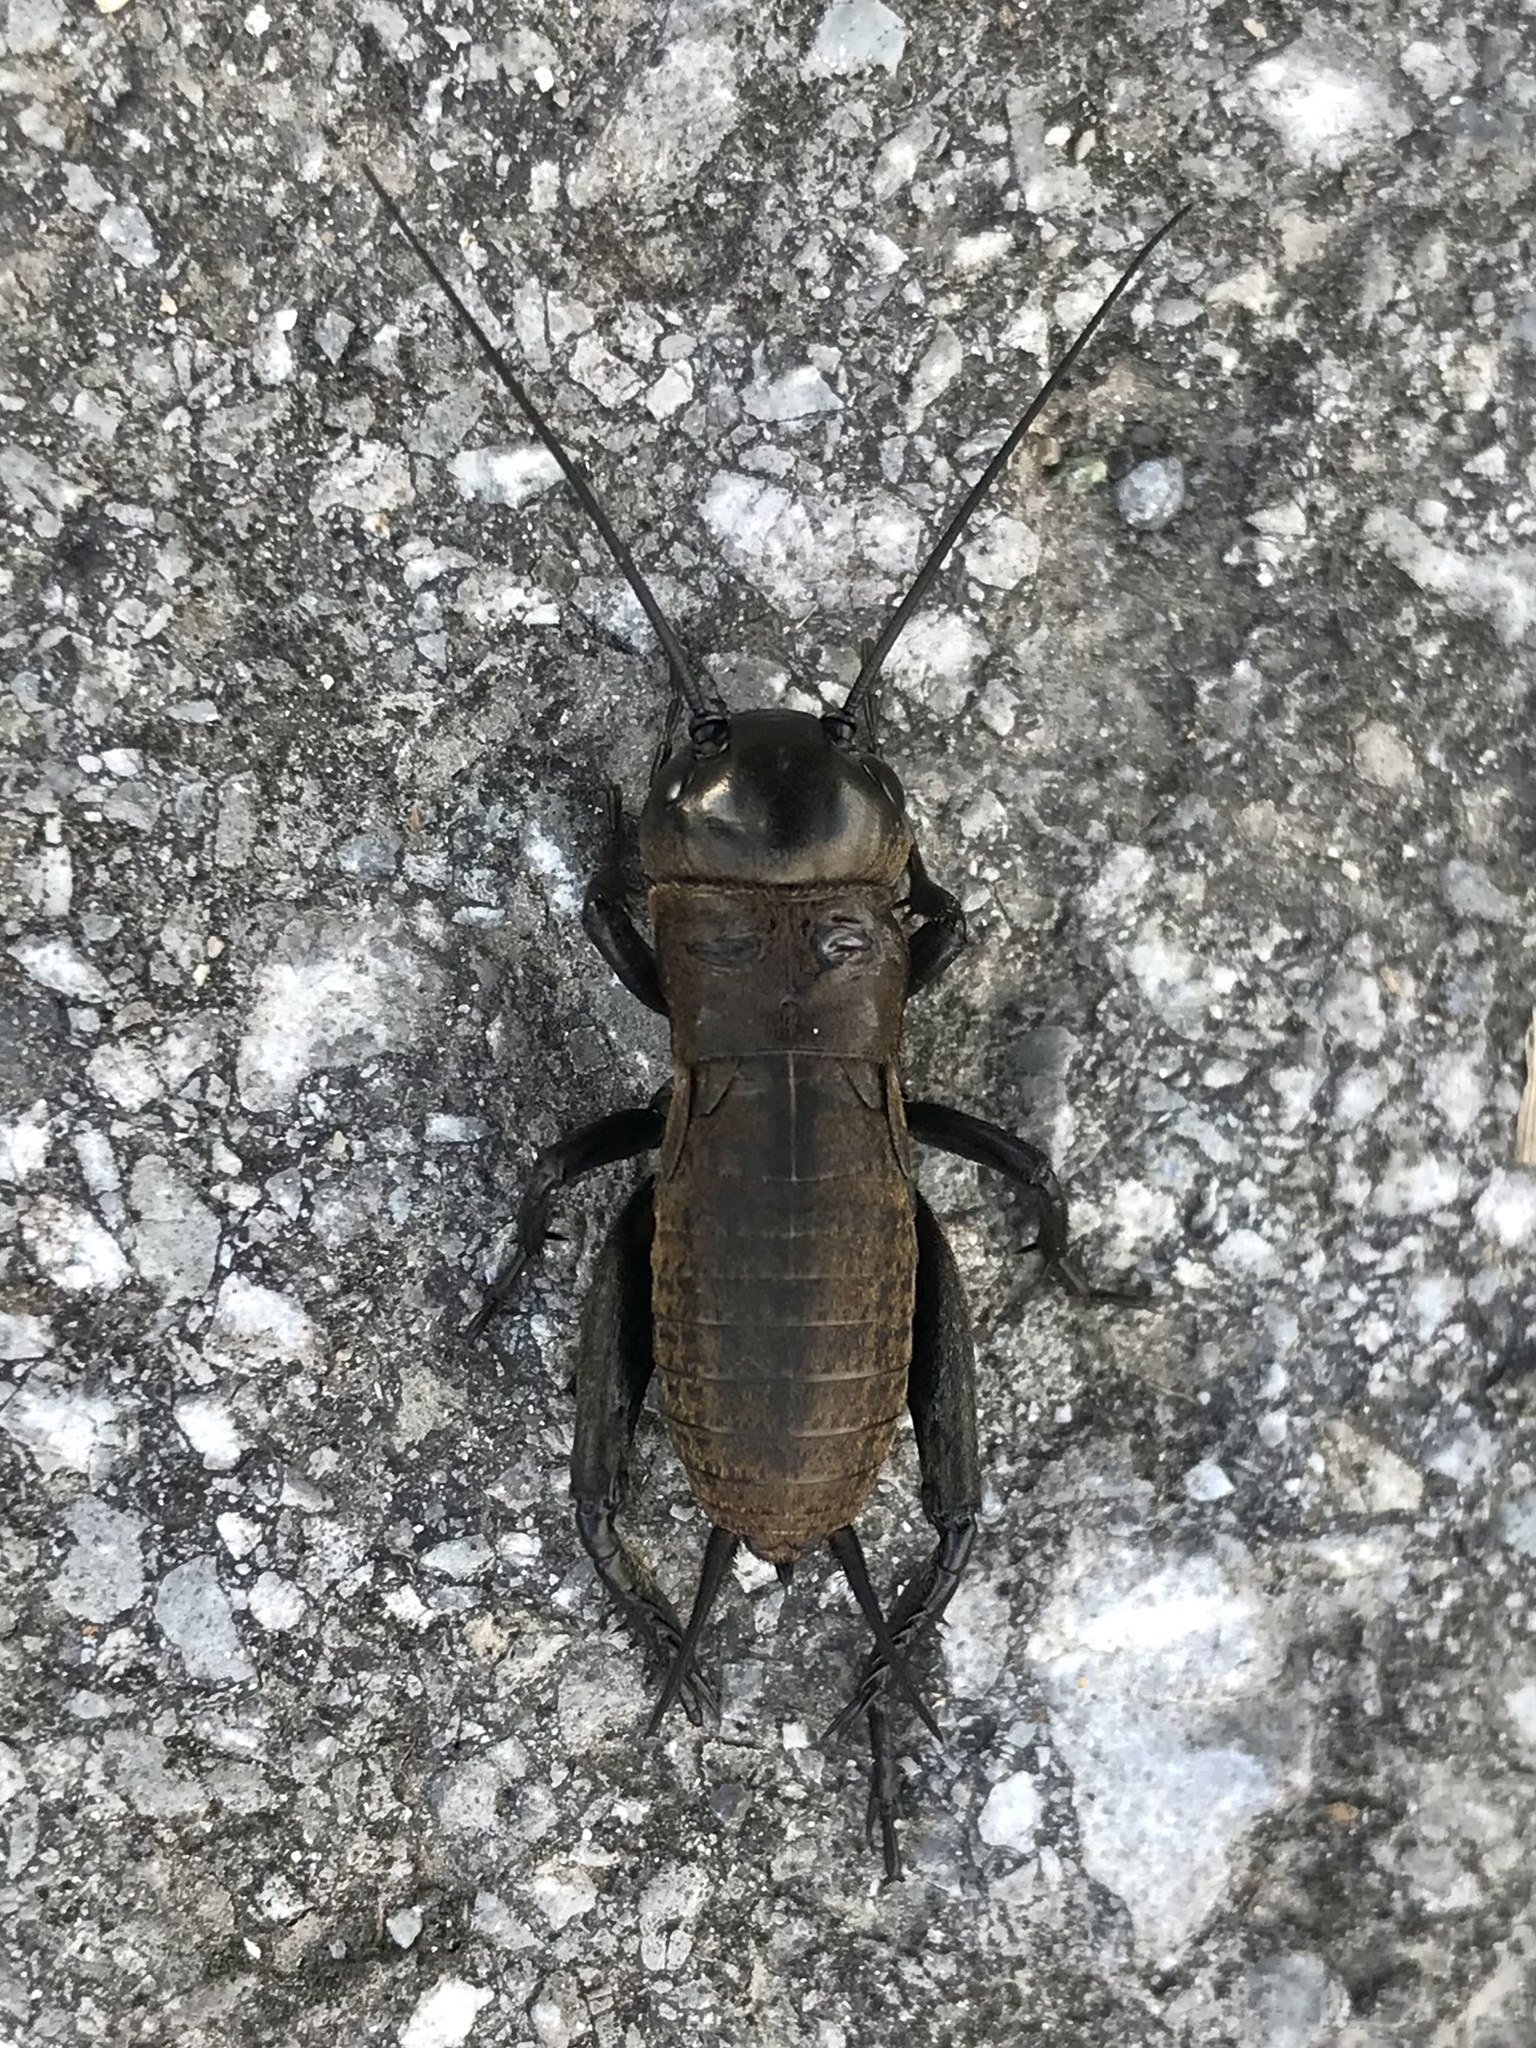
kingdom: Animalia
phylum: Arthropoda
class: Insecta
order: Orthoptera
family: Gryllidae
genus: Gryllus
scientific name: Gryllus campestris
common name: Field cricket
